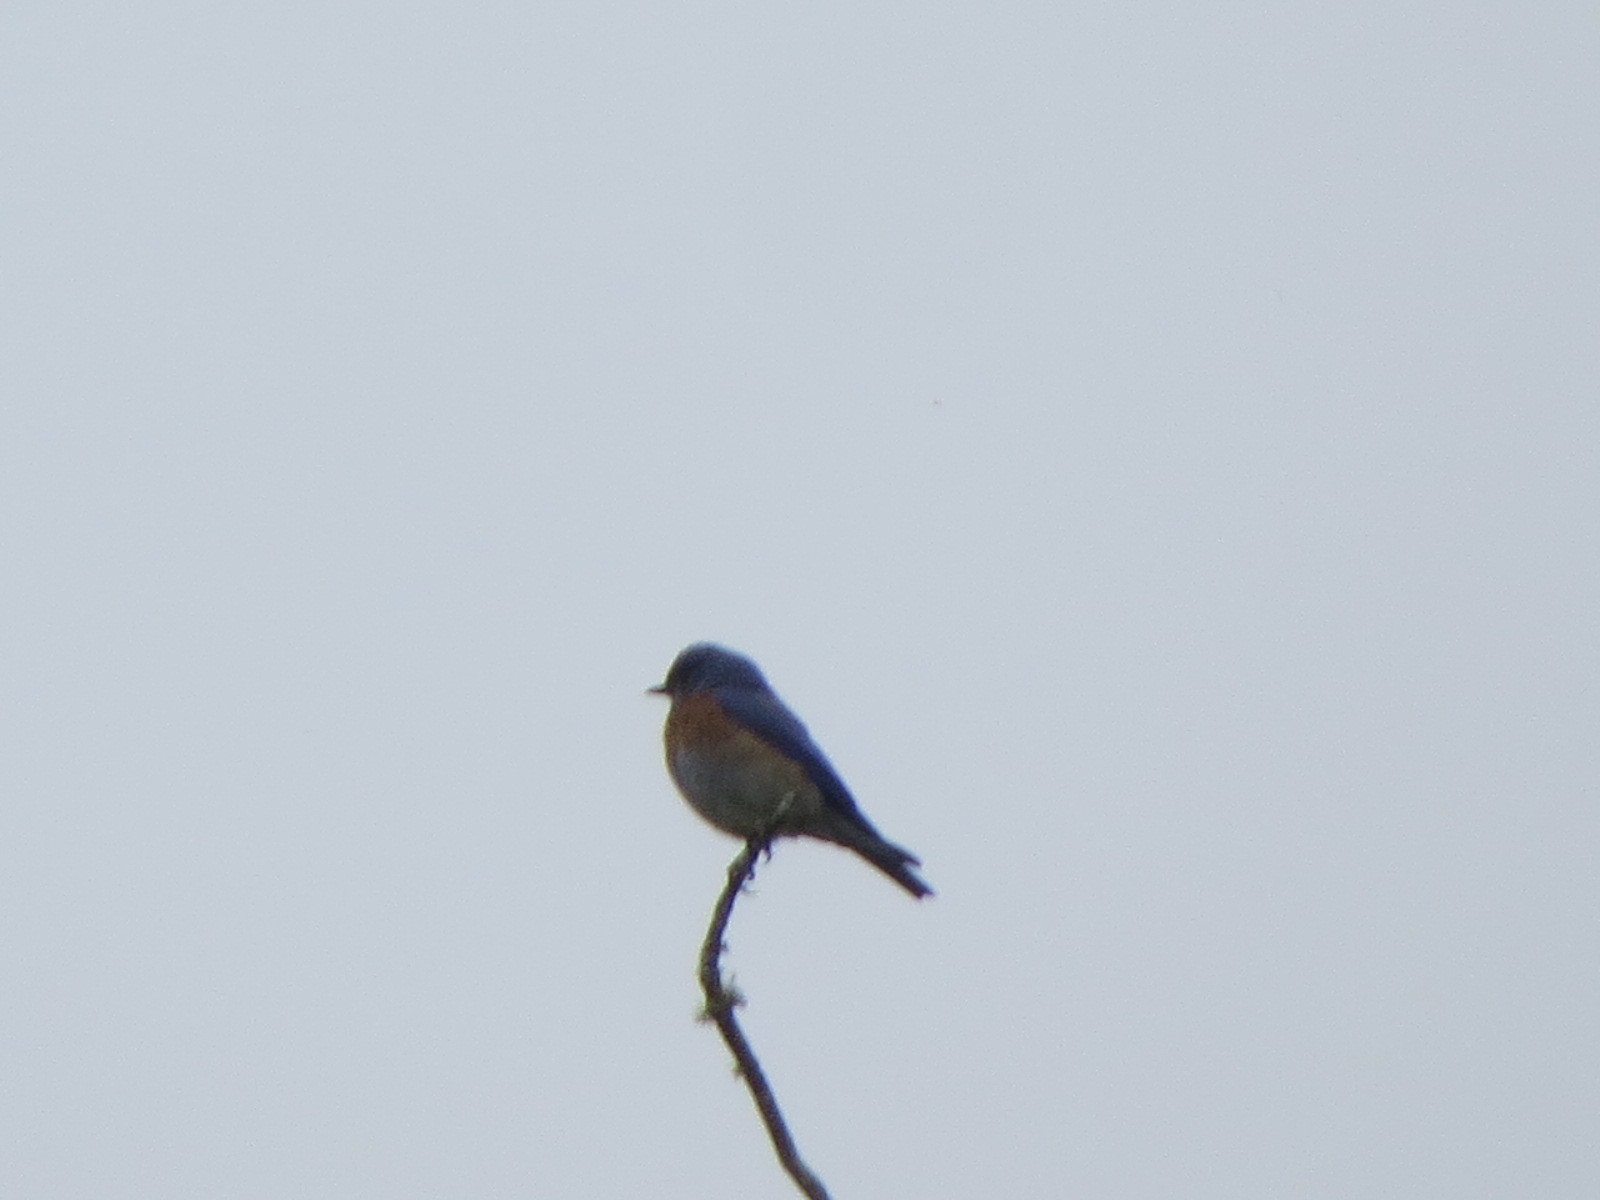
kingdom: Animalia
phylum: Chordata
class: Aves
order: Passeriformes
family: Turdidae
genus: Sialia
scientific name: Sialia mexicana
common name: Western bluebird
